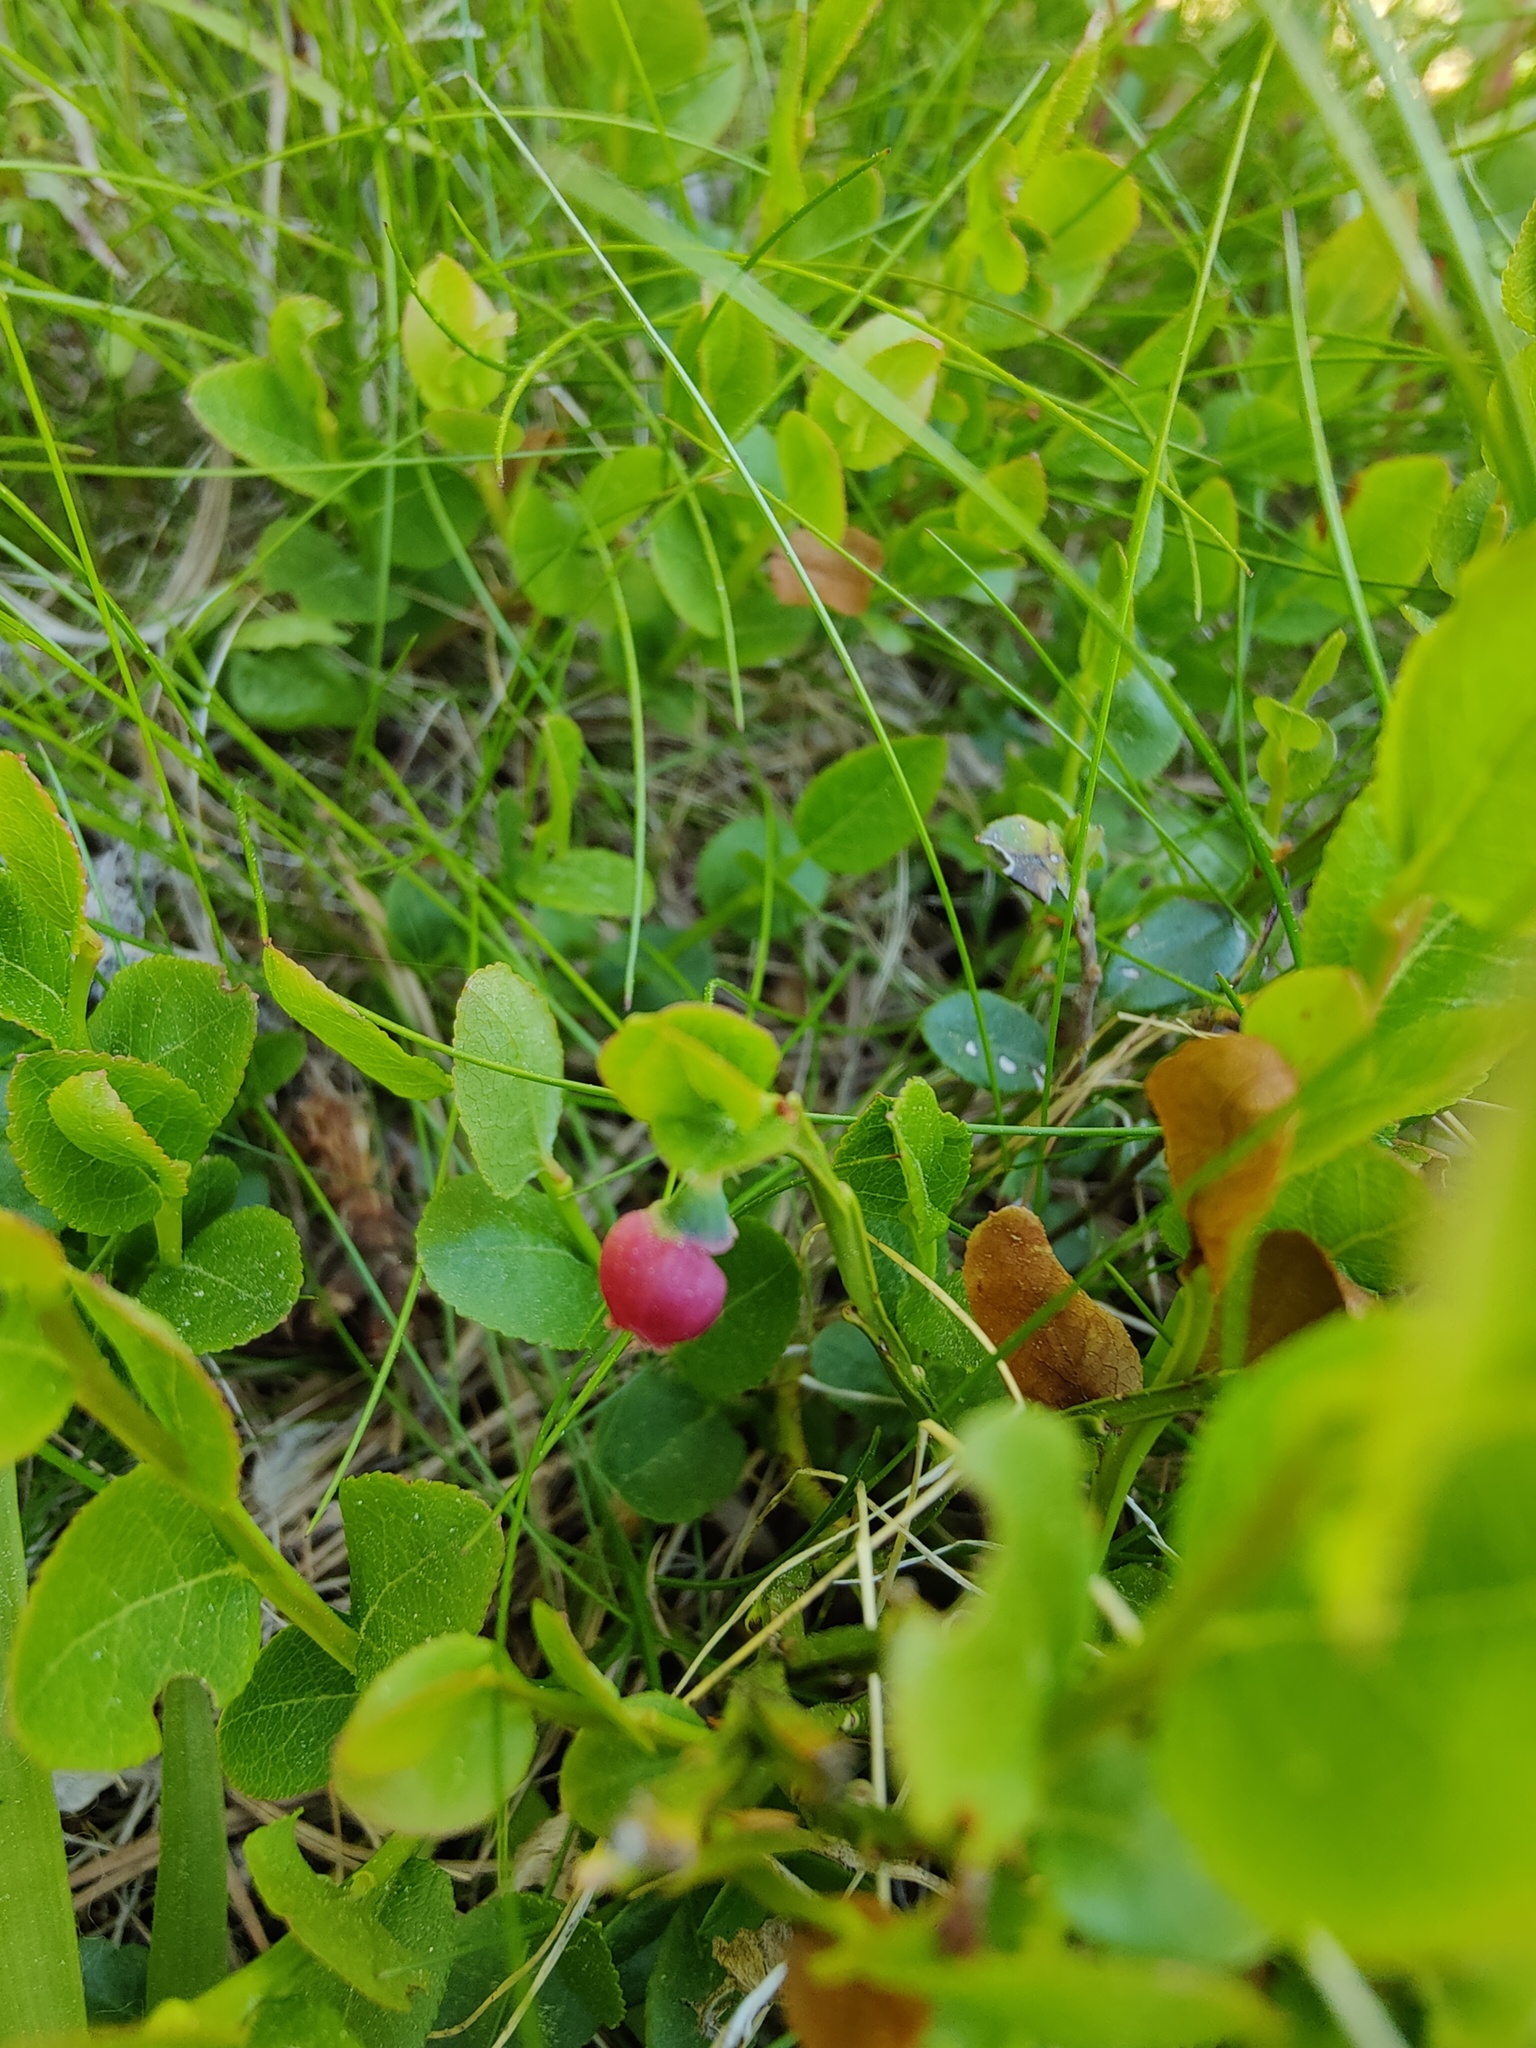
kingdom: Plantae
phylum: Tracheophyta
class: Magnoliopsida
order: Ericales
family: Ericaceae
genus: Vaccinium
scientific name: Vaccinium myrtillus
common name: Bilberry
